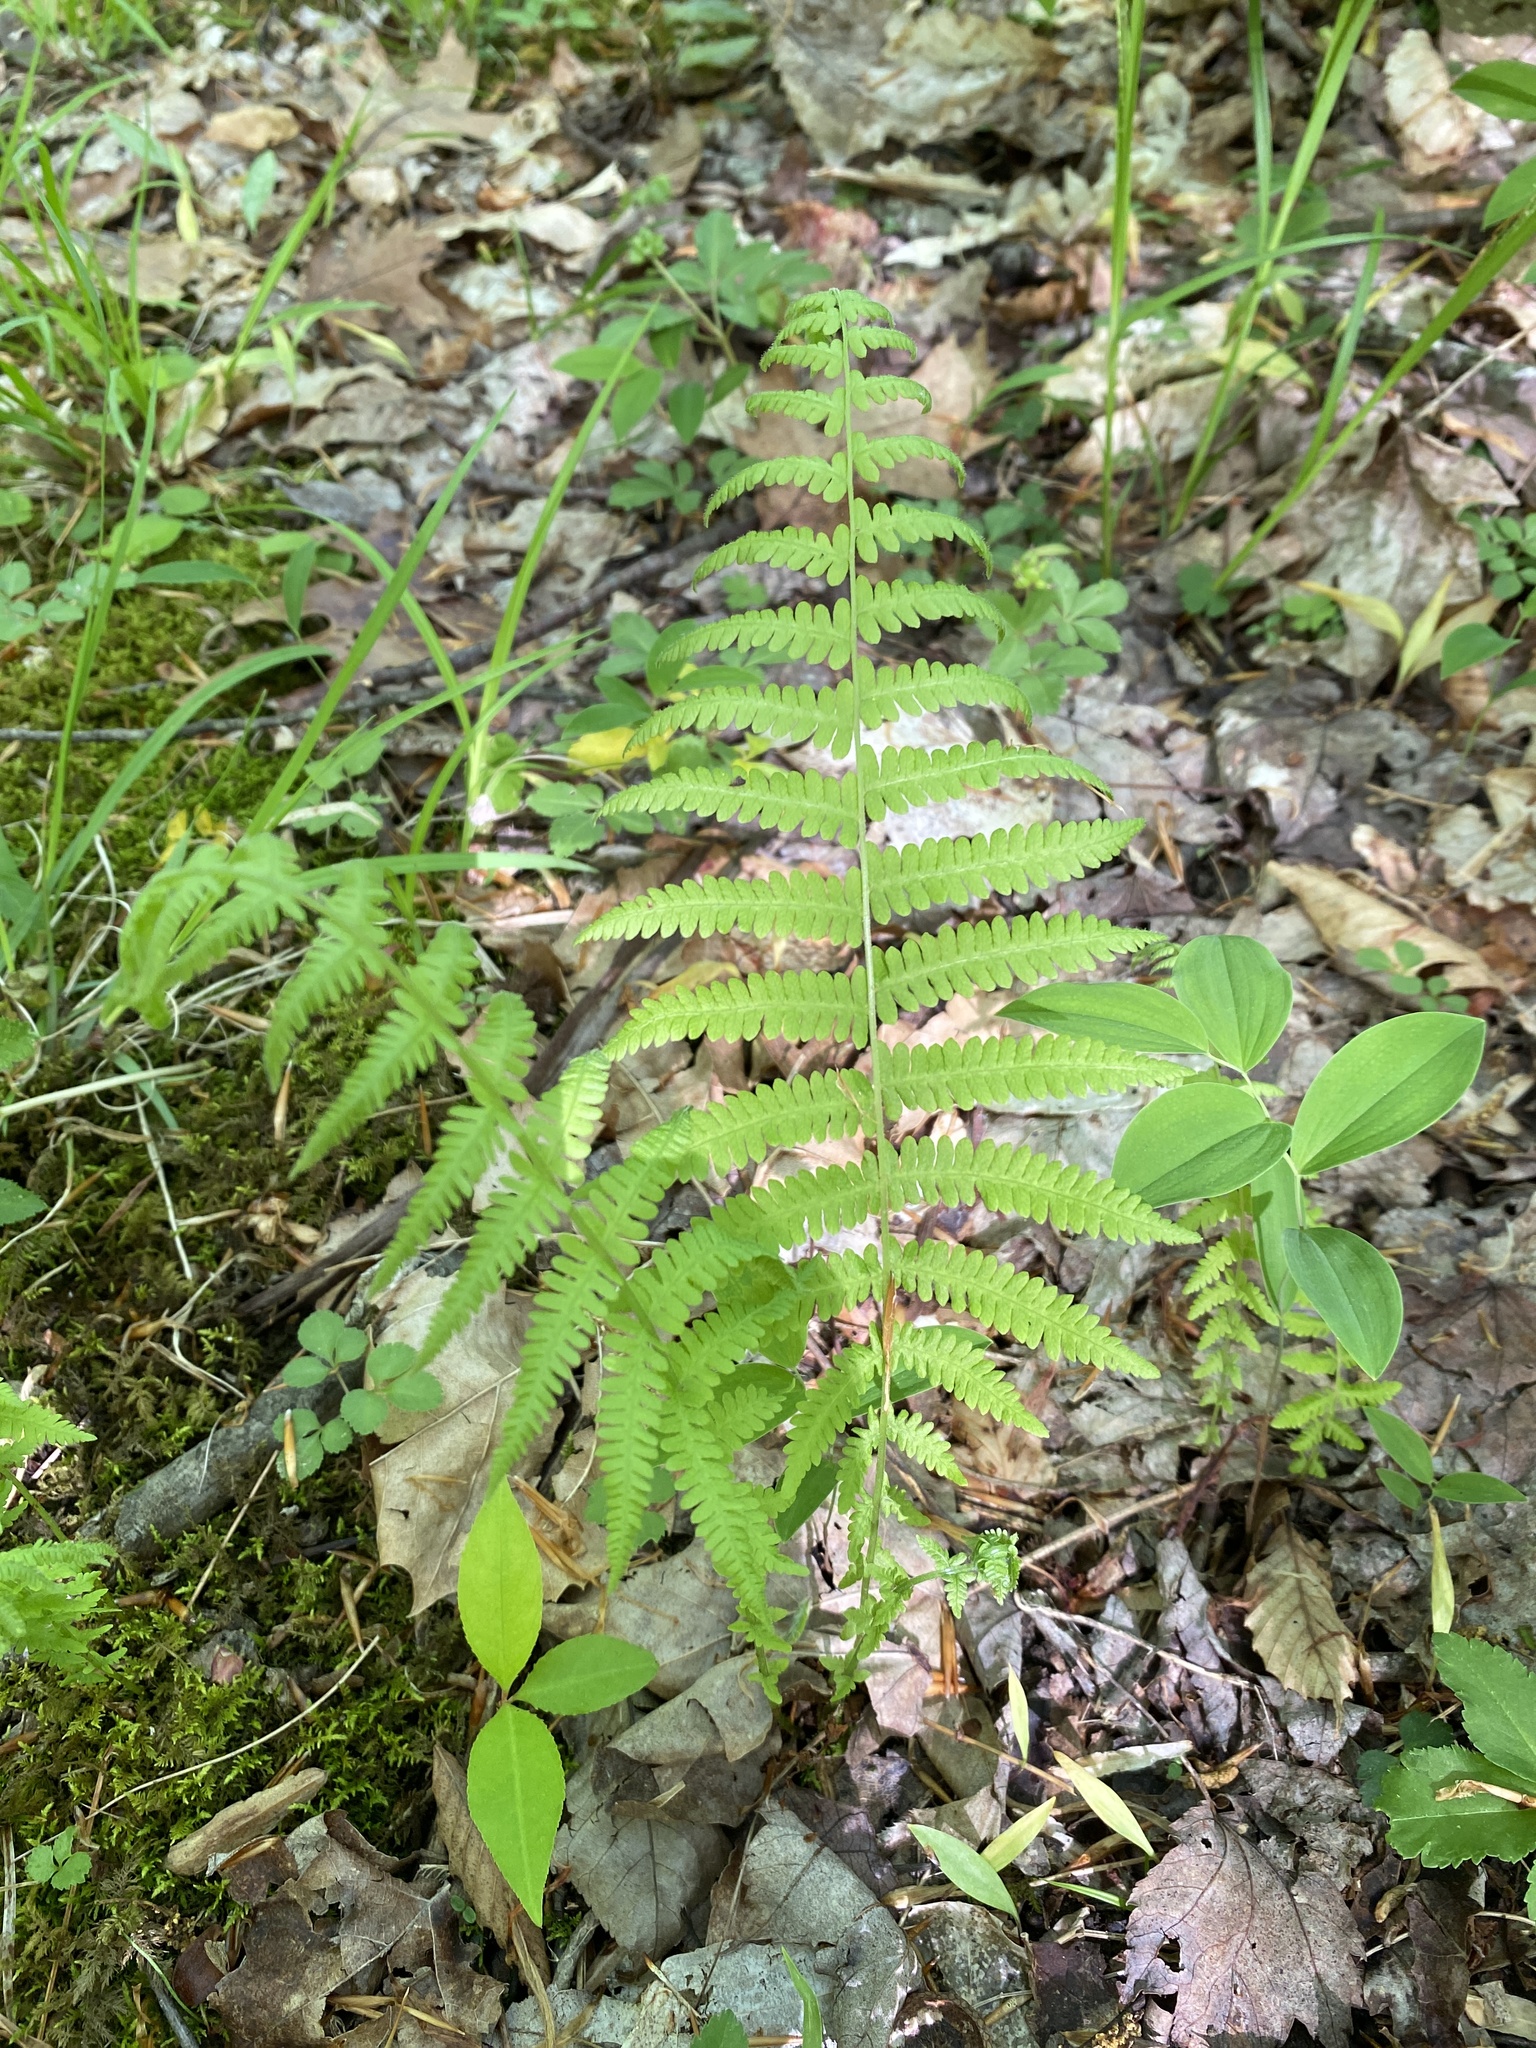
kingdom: Plantae
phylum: Tracheophyta
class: Polypodiopsida
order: Polypodiales
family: Thelypteridaceae
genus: Amauropelta
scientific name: Amauropelta noveboracensis
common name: New york fern
